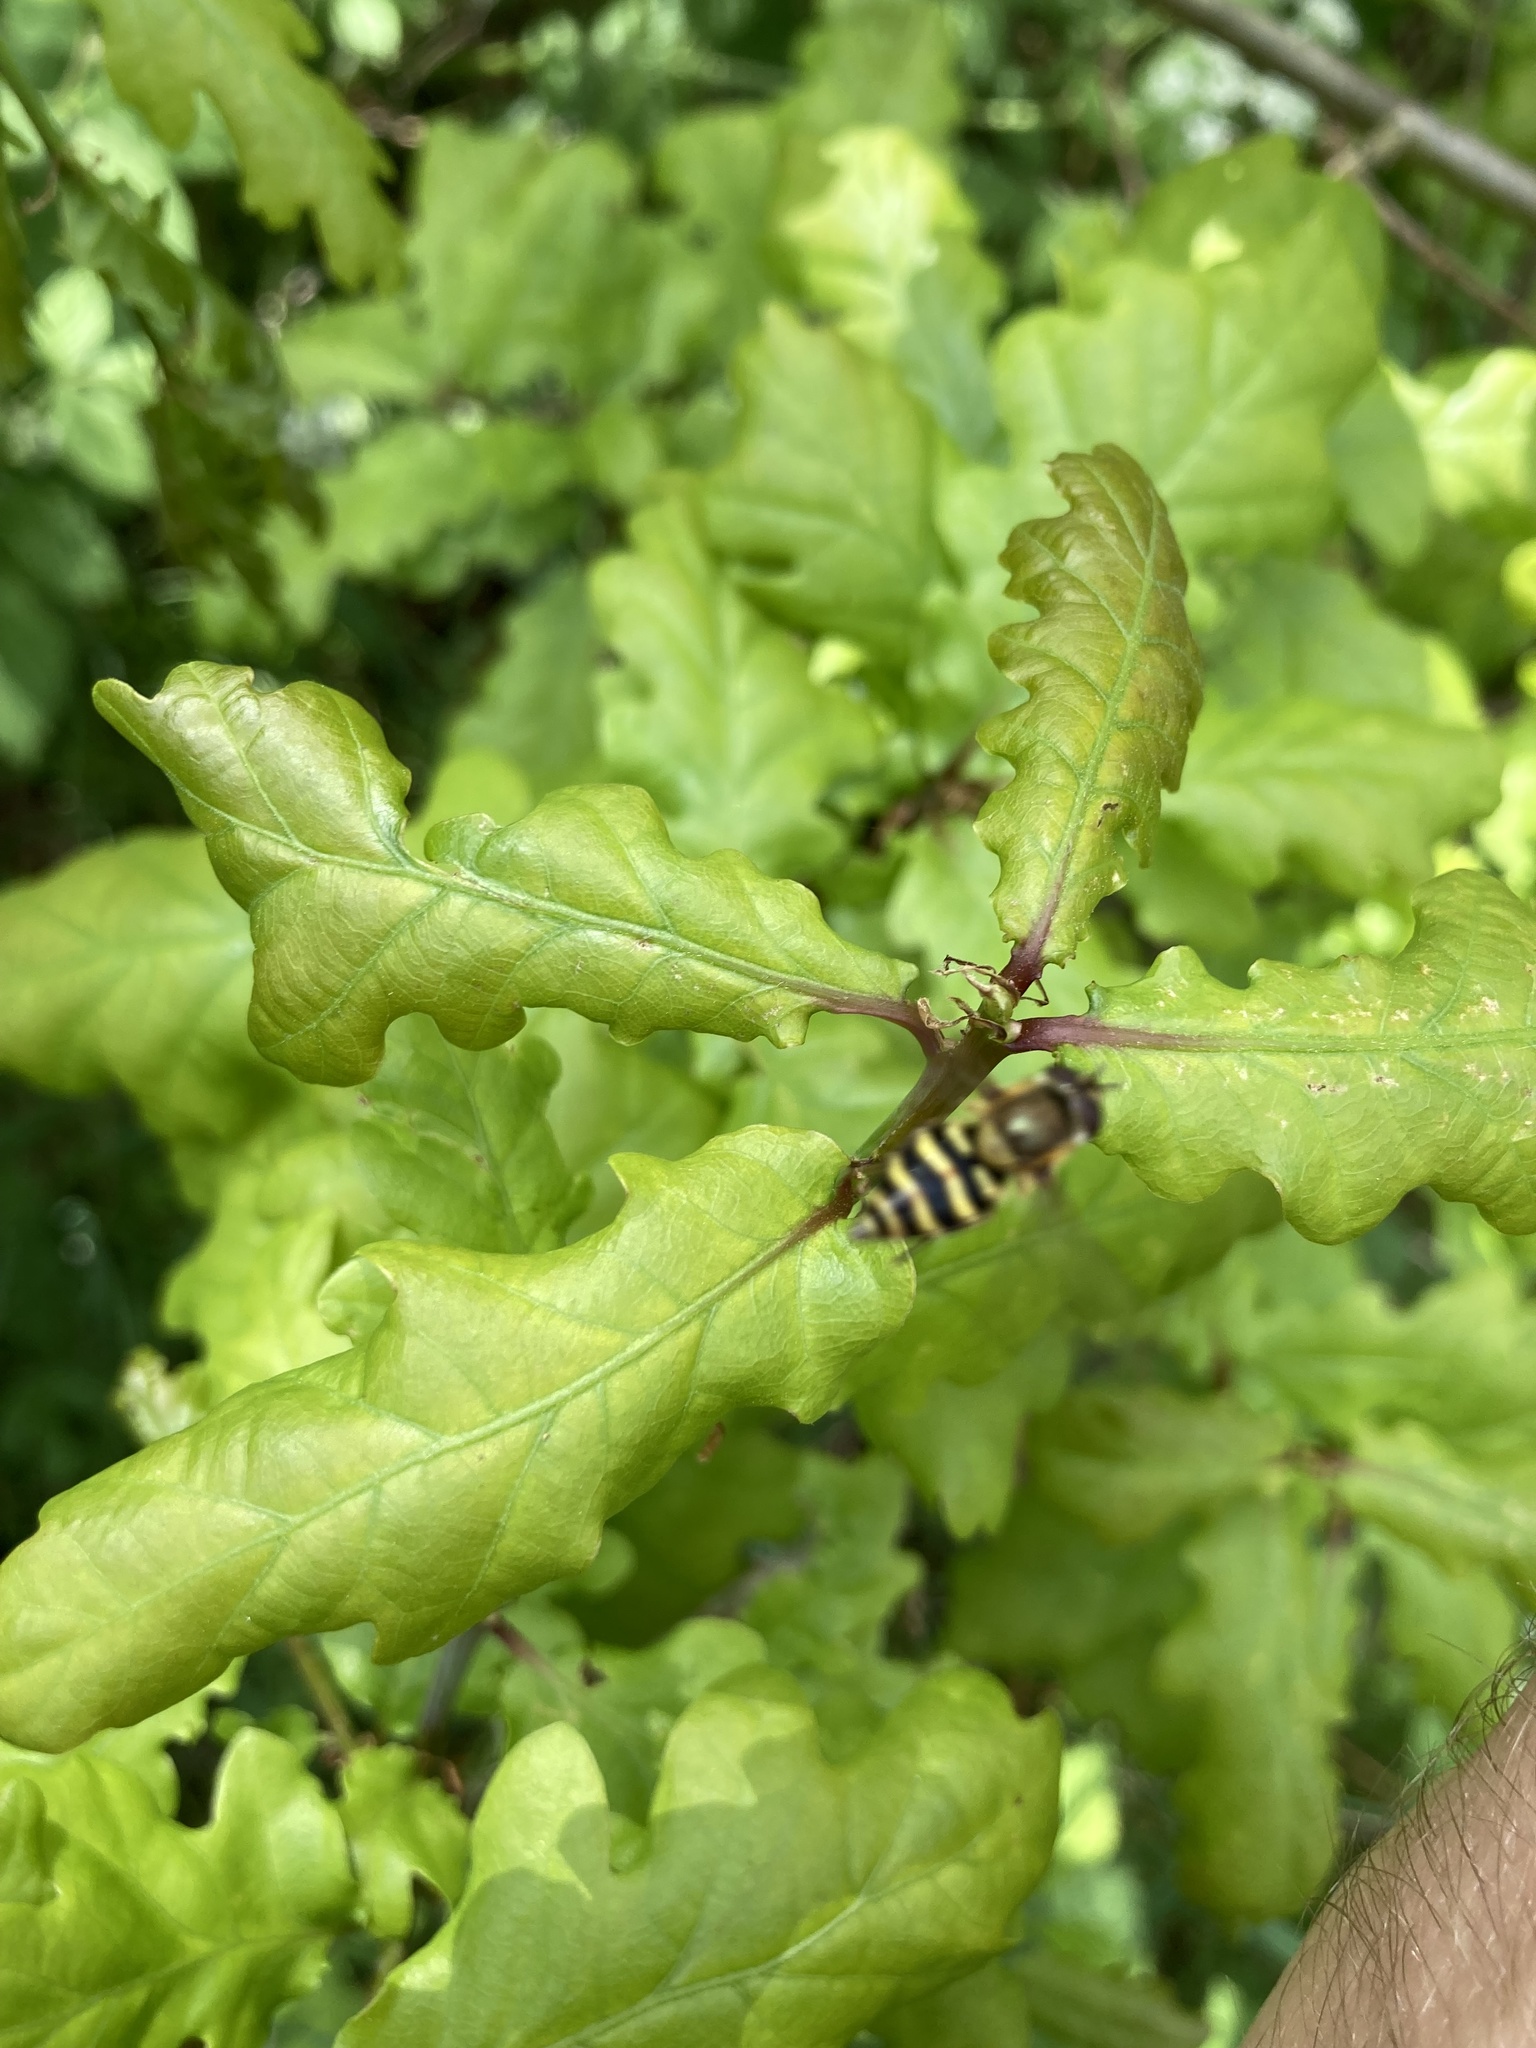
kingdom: Animalia
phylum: Arthropoda
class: Insecta
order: Diptera
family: Syrphidae
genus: Syrphus
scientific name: Syrphus
